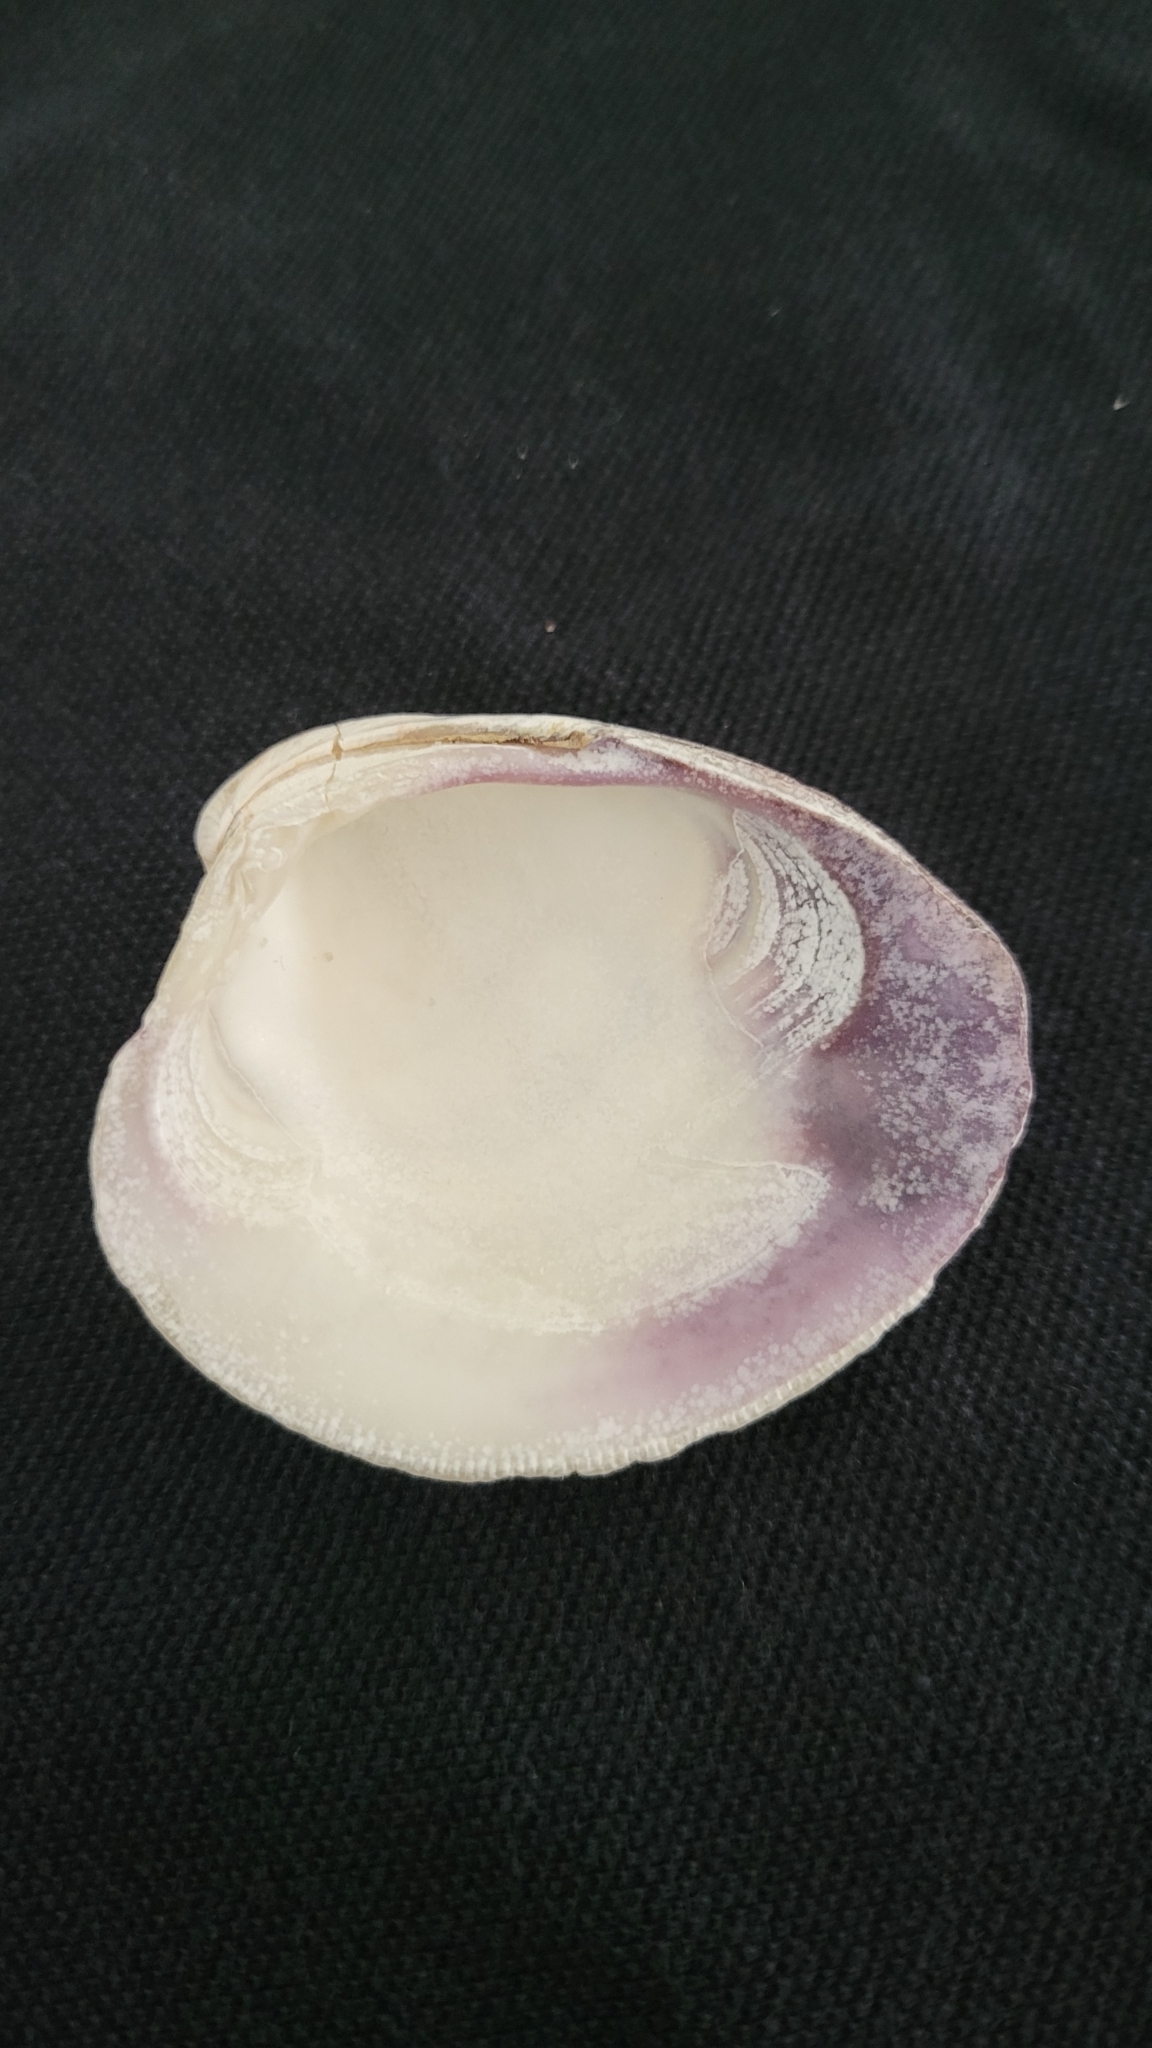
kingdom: Animalia
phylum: Mollusca
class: Bivalvia
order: Venerida
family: Veneridae
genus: Mercenaria
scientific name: Mercenaria mercenaria
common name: American hard-shelled clam
